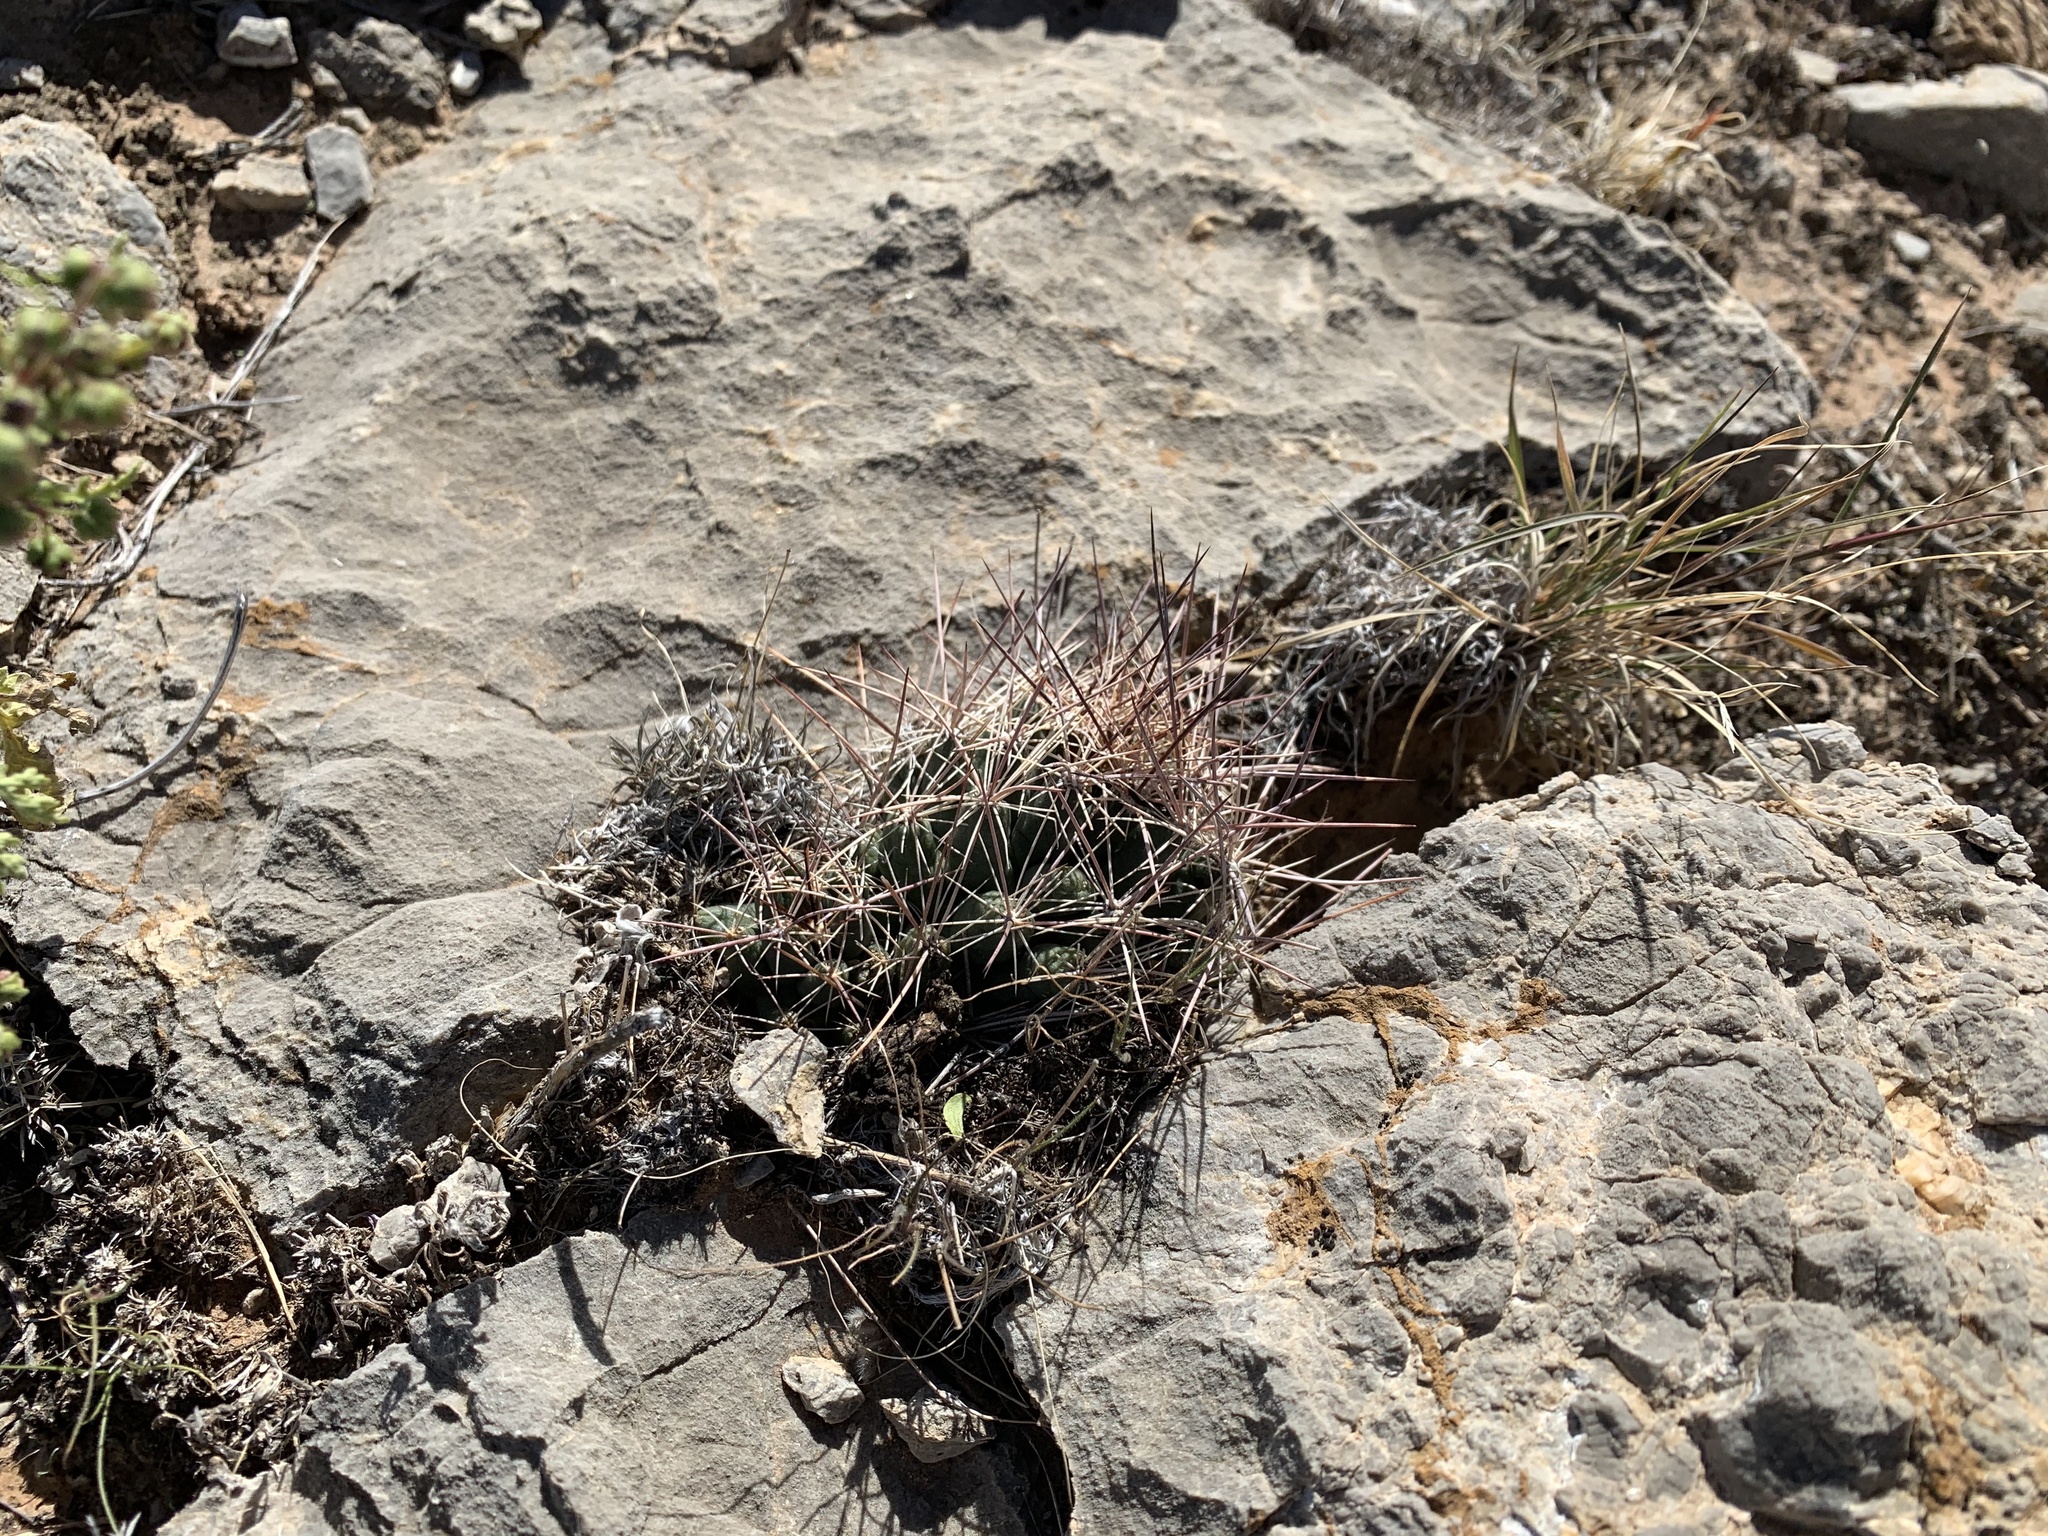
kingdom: Plantae
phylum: Tracheophyta
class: Magnoliopsida
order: Caryophyllales
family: Cactaceae
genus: Coryphantha
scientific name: Coryphantha macromeris
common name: Nipple beehive cactus
